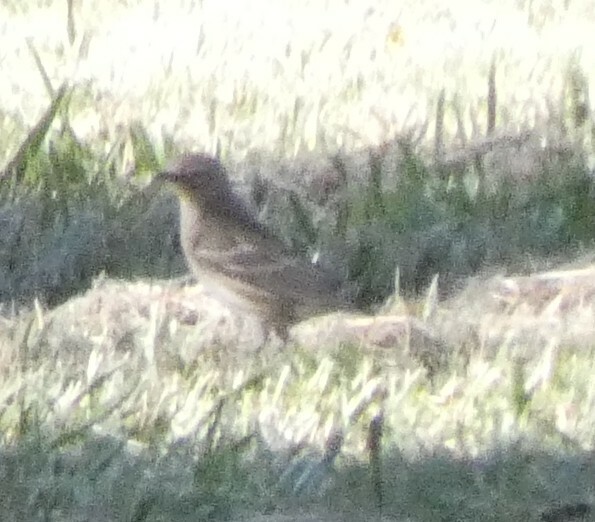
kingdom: Animalia
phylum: Chordata
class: Aves
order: Passeriformes
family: Parulidae
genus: Setophaga
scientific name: Setophaga coronata
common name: Myrtle warbler
